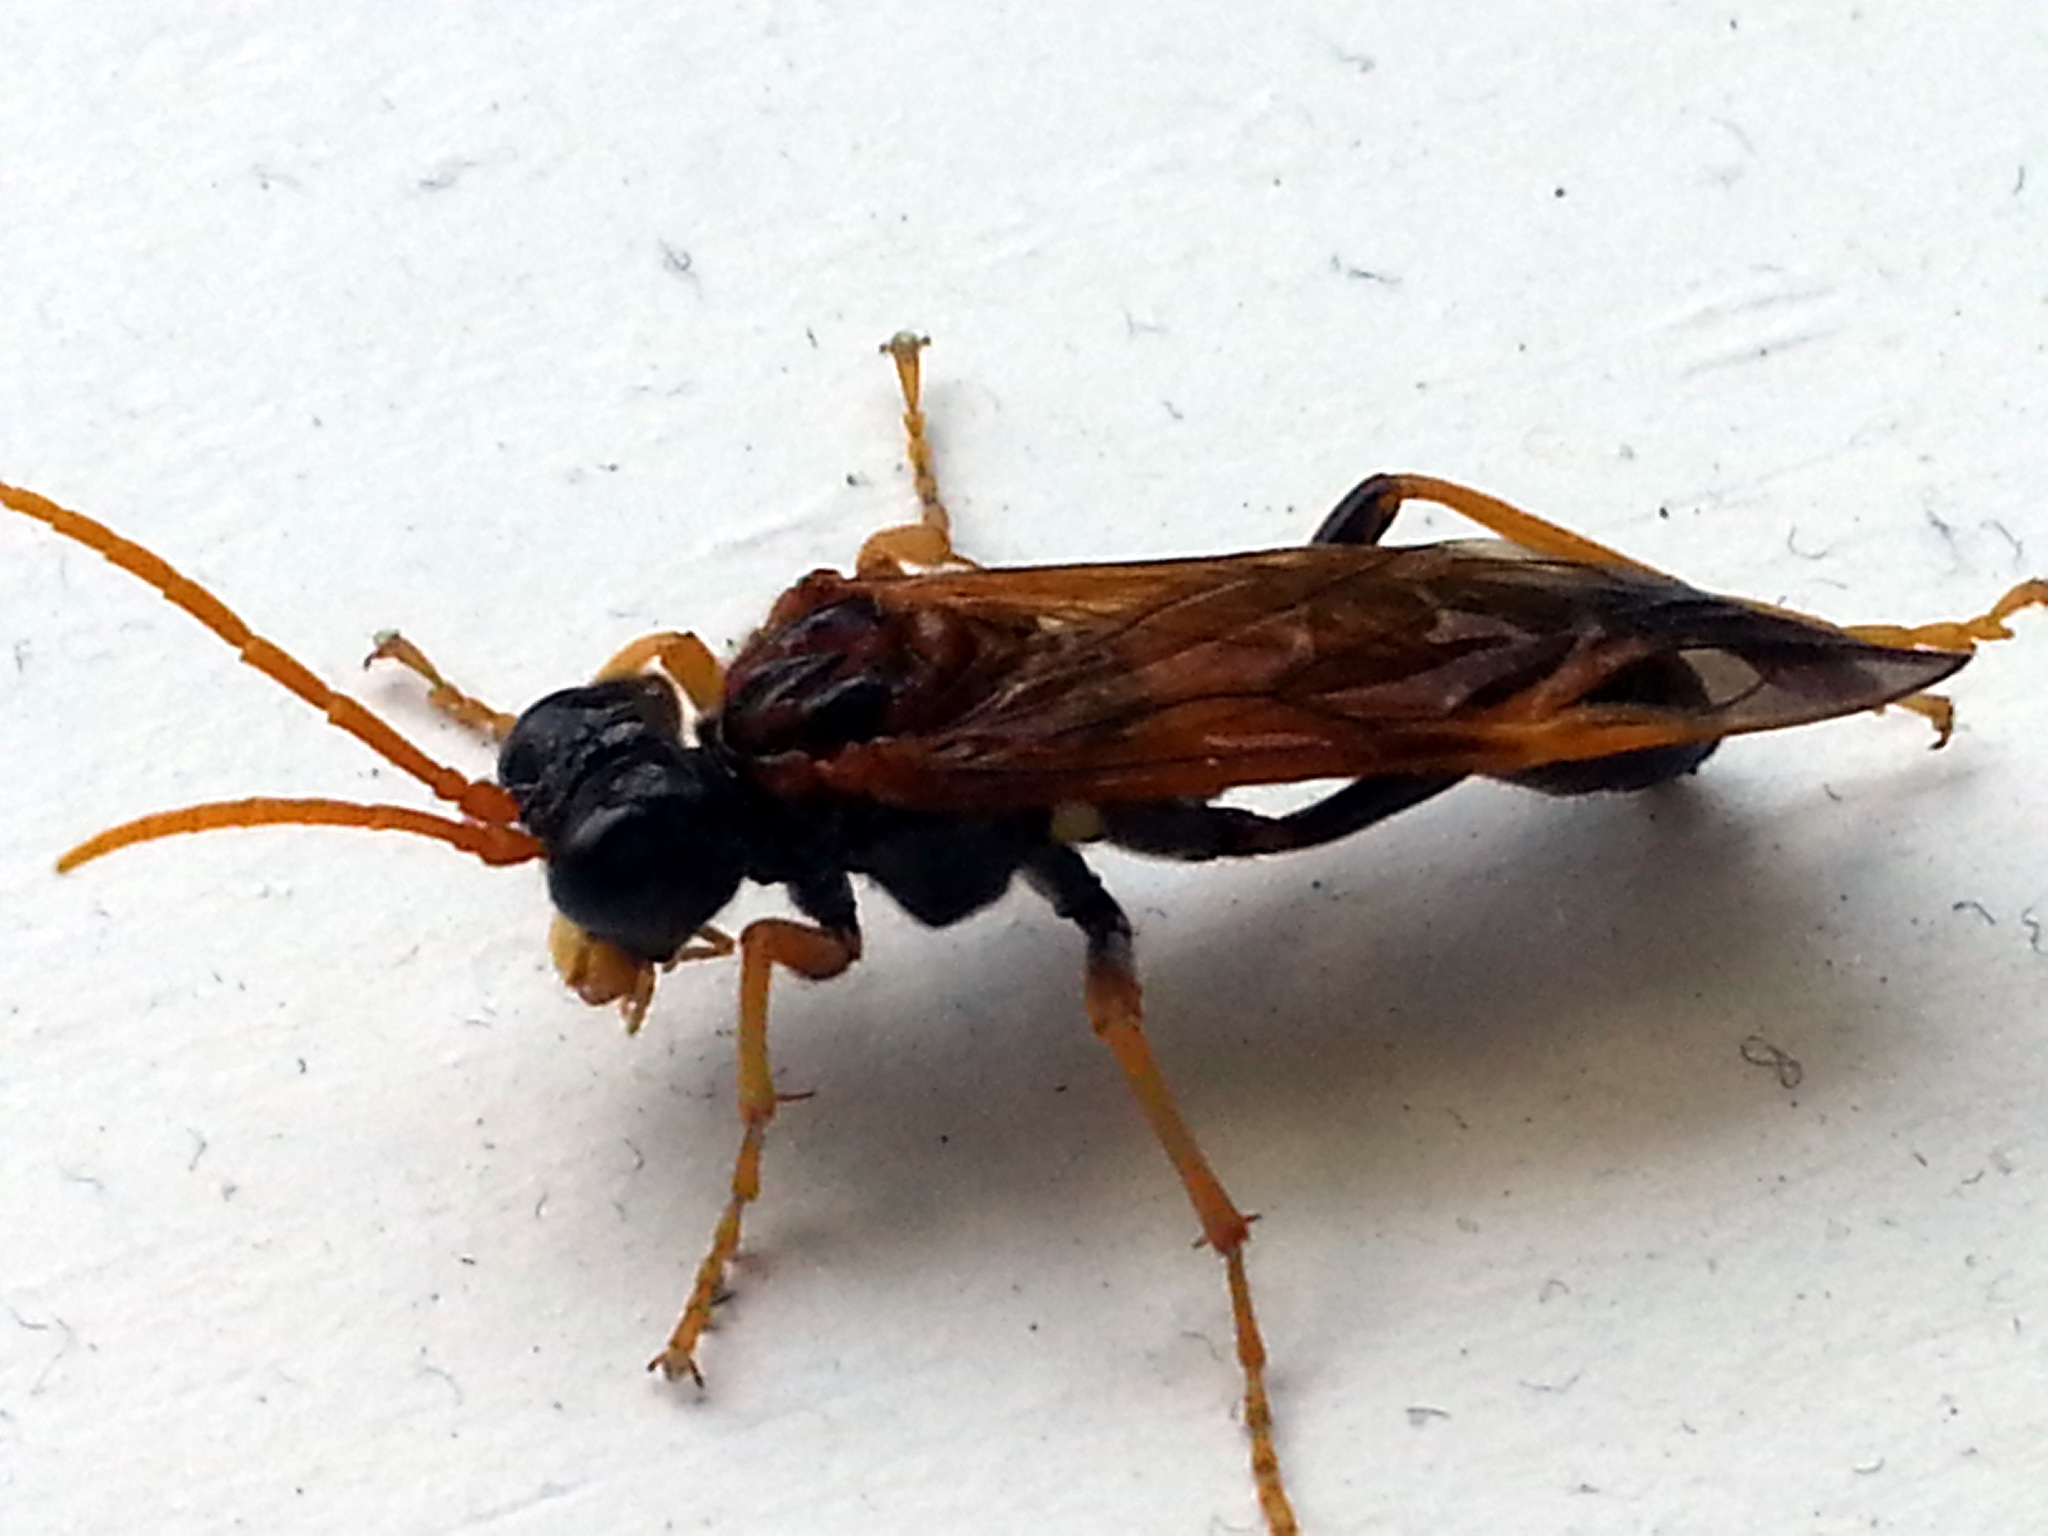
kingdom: Animalia
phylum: Arthropoda
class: Insecta
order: Hymenoptera
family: Tenthredinidae
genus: Tenthredo
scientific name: Tenthredo campestris
